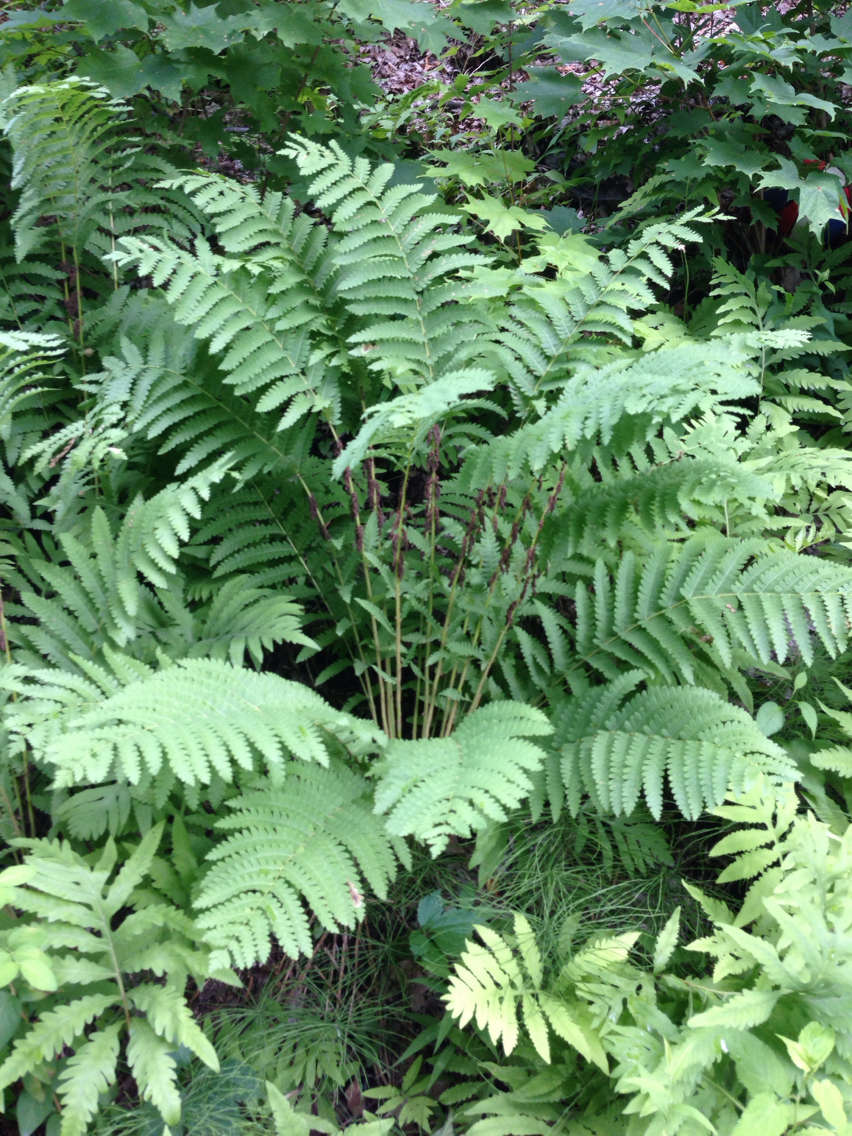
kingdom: Plantae
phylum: Tracheophyta
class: Polypodiopsida
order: Osmundales
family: Osmundaceae
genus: Claytosmunda
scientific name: Claytosmunda claytoniana
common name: Clayton's fern
